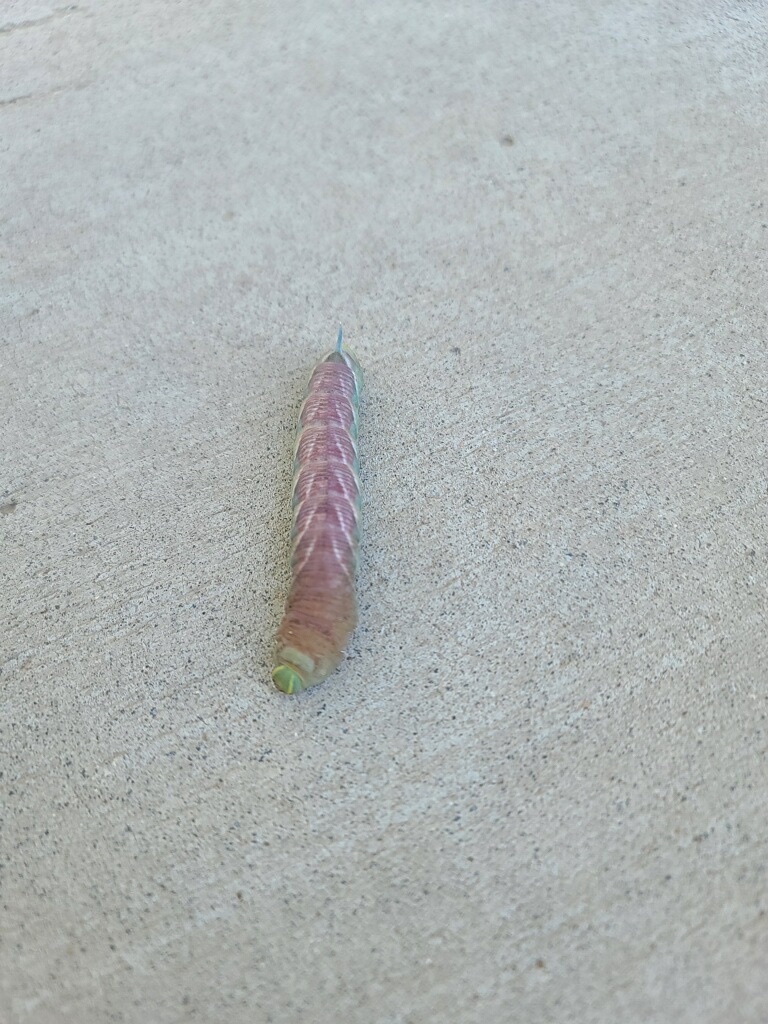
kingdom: Animalia
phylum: Arthropoda
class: Insecta
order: Lepidoptera
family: Sphingidae
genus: Sphinx
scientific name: Sphinx chersis
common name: Great ash sphinx
